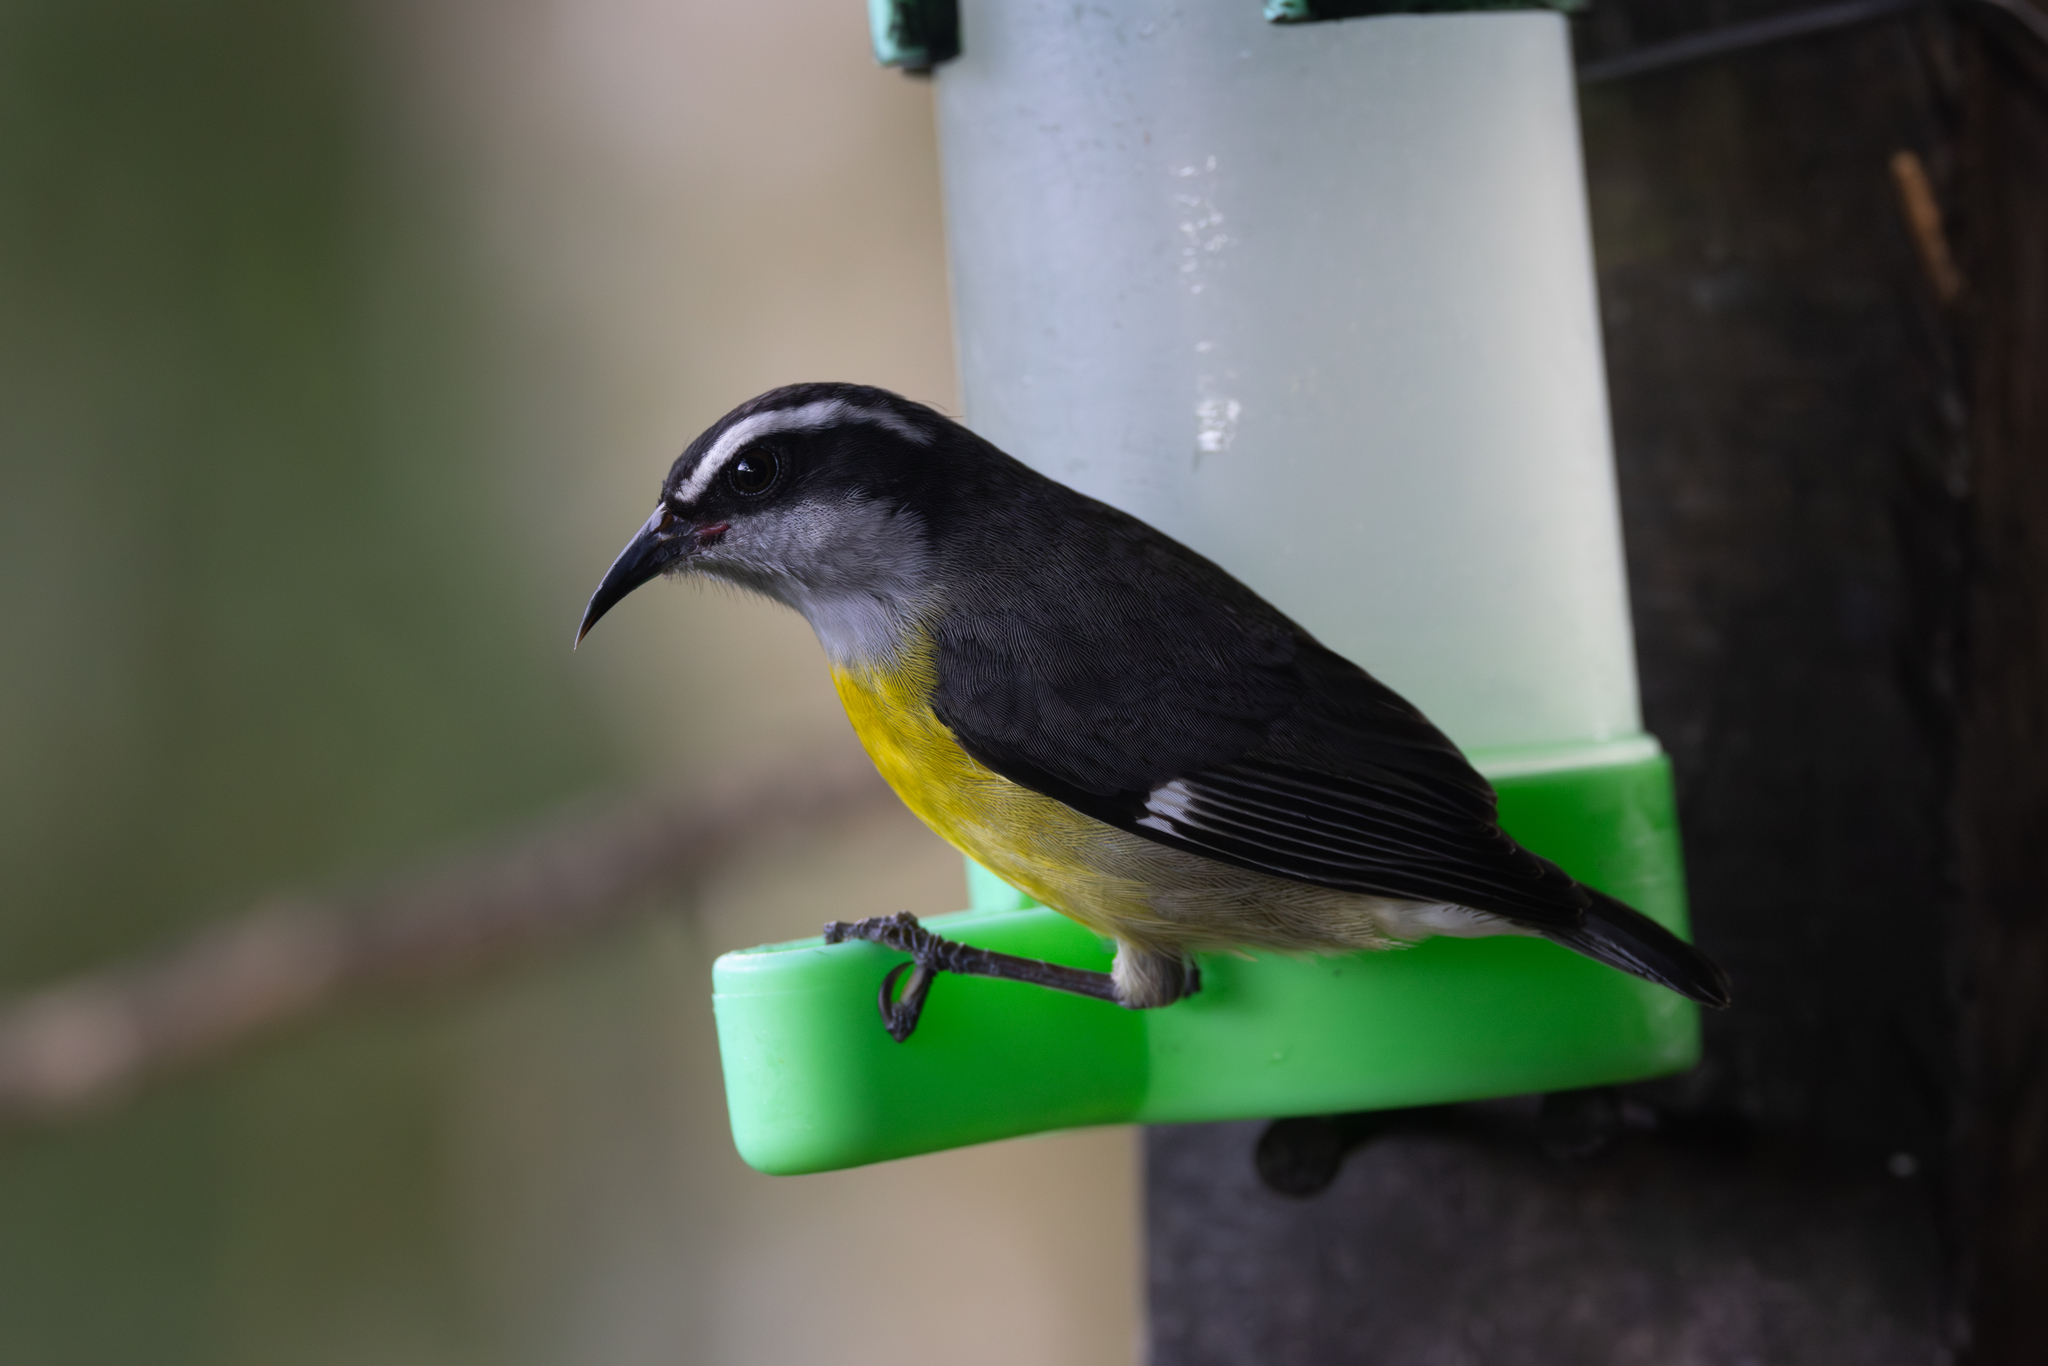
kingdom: Animalia
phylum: Chordata
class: Aves
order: Passeriformes
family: Thraupidae
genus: Coereba
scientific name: Coereba flaveola
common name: Bananaquit
